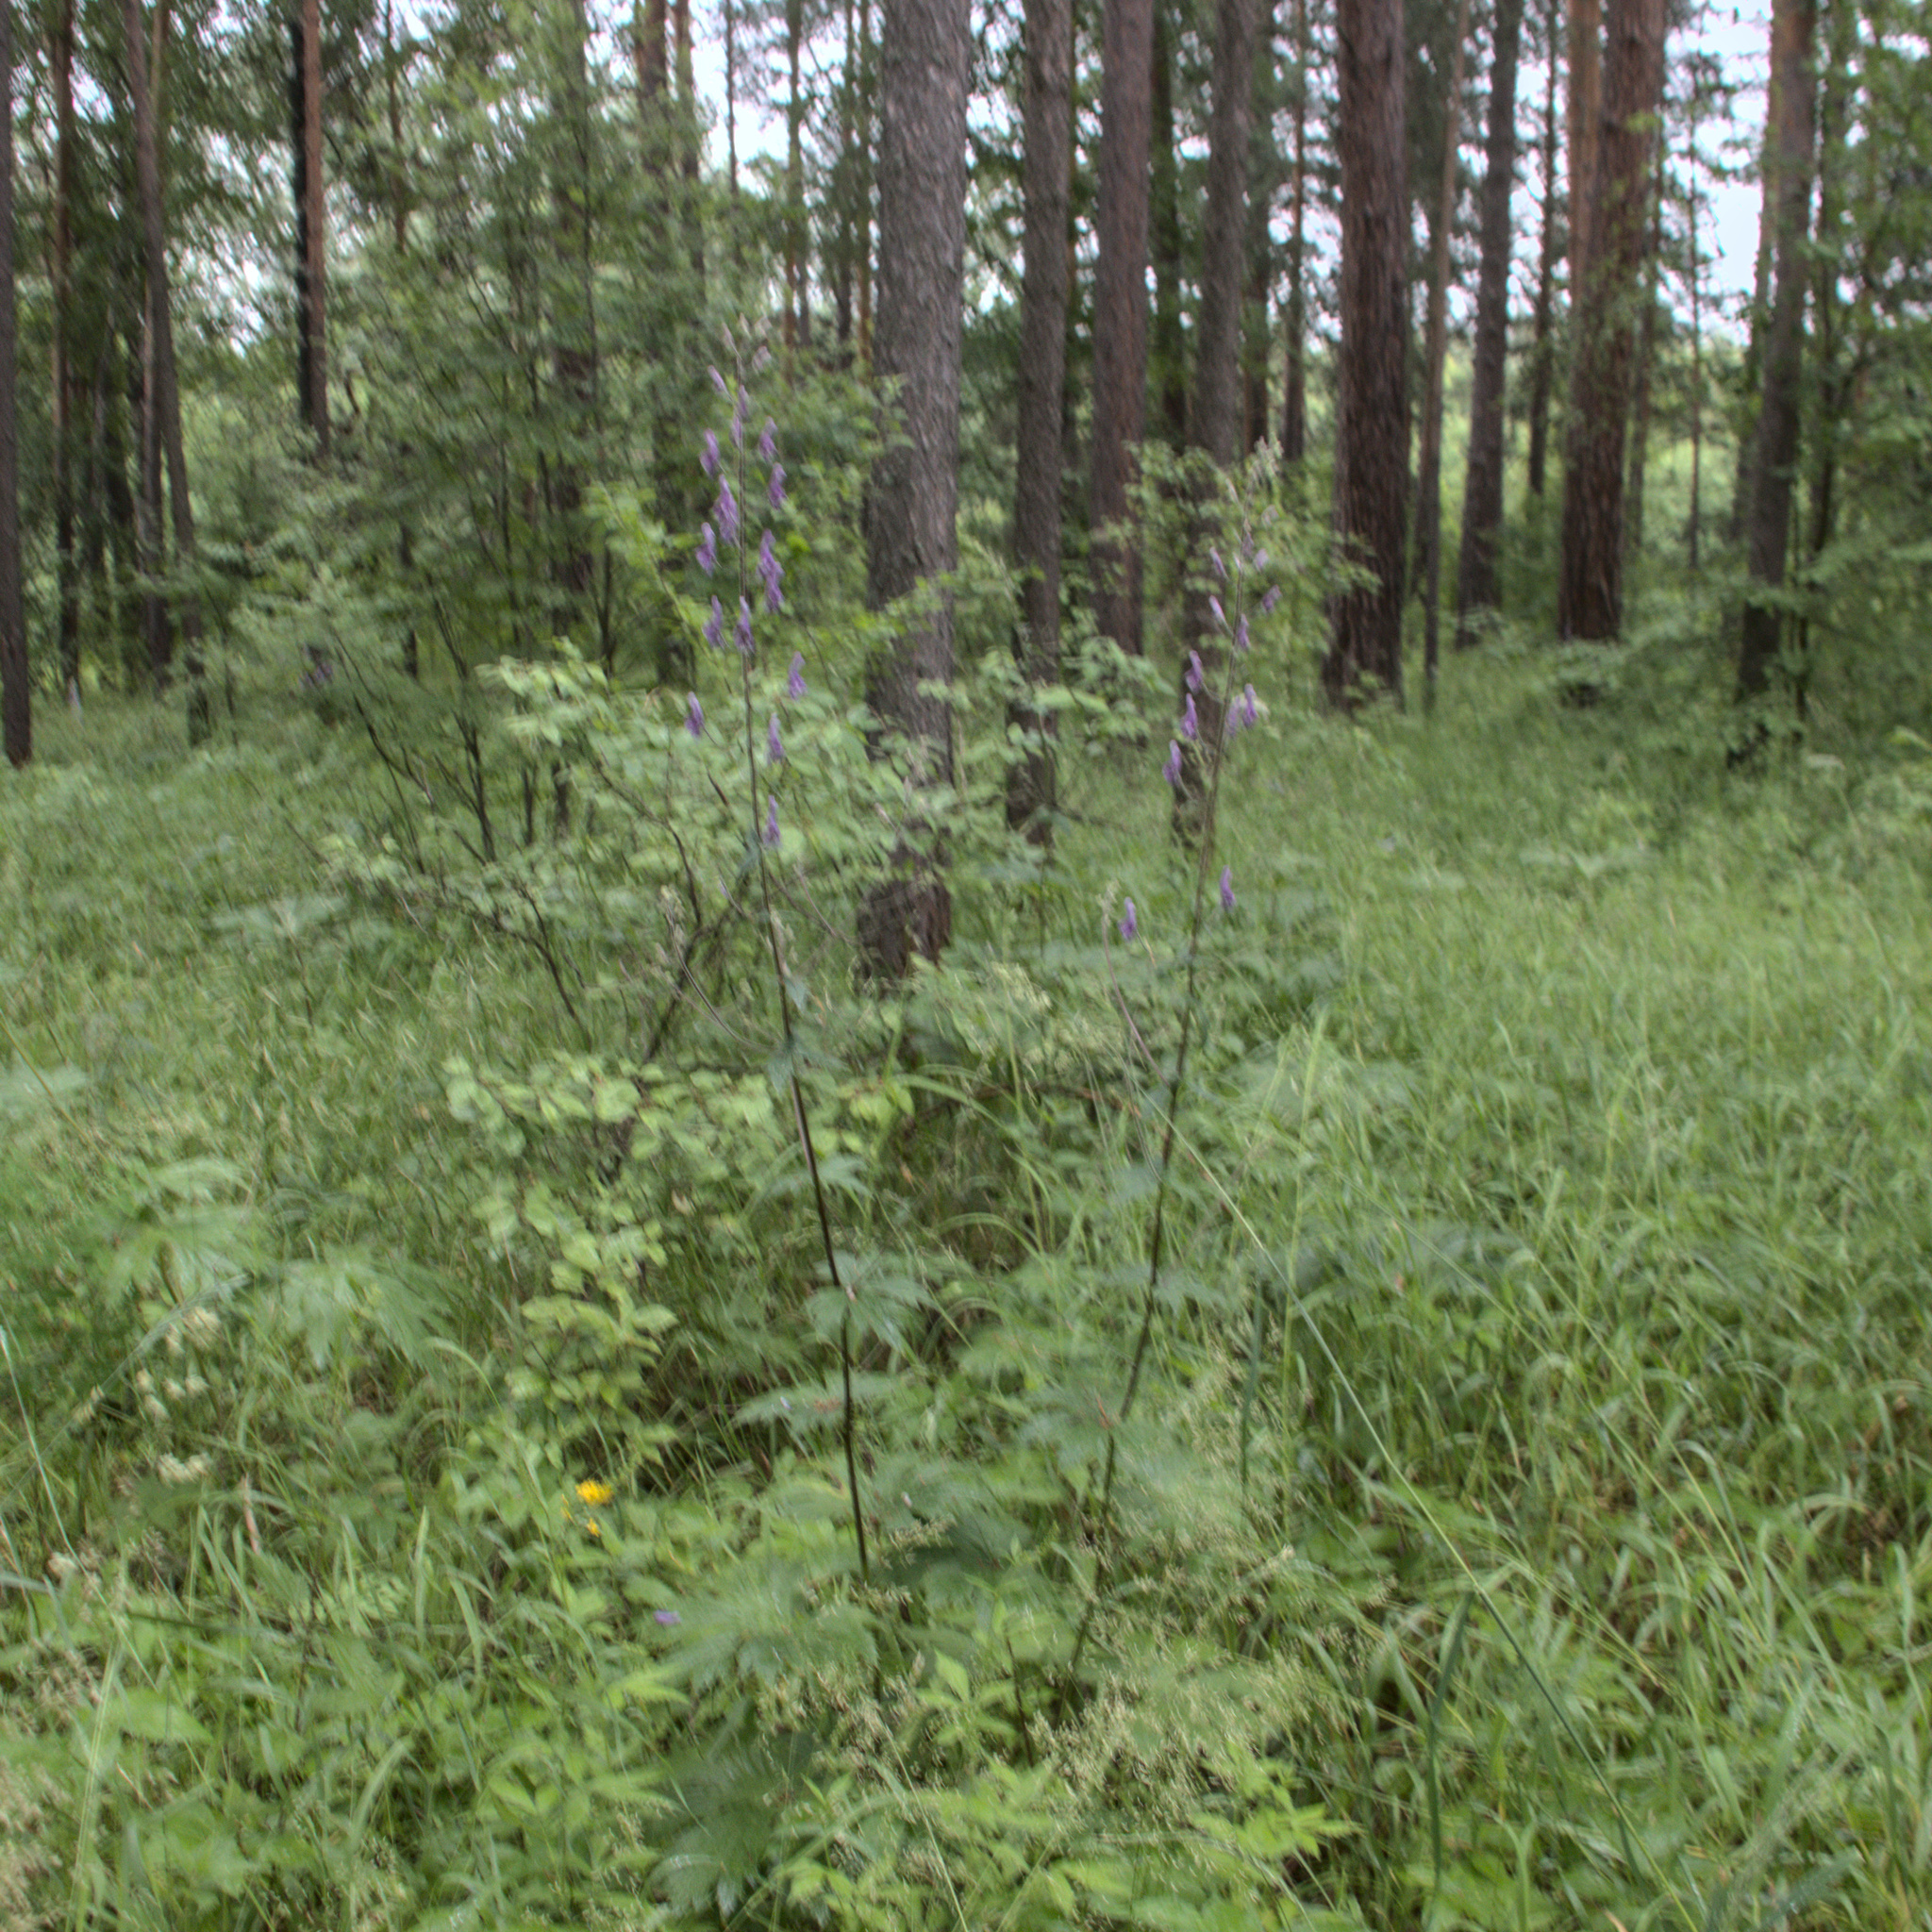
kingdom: Plantae
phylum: Tracheophyta
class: Magnoliopsida
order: Ranunculales
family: Ranunculaceae
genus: Aconitum
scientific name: Aconitum septentrionale
